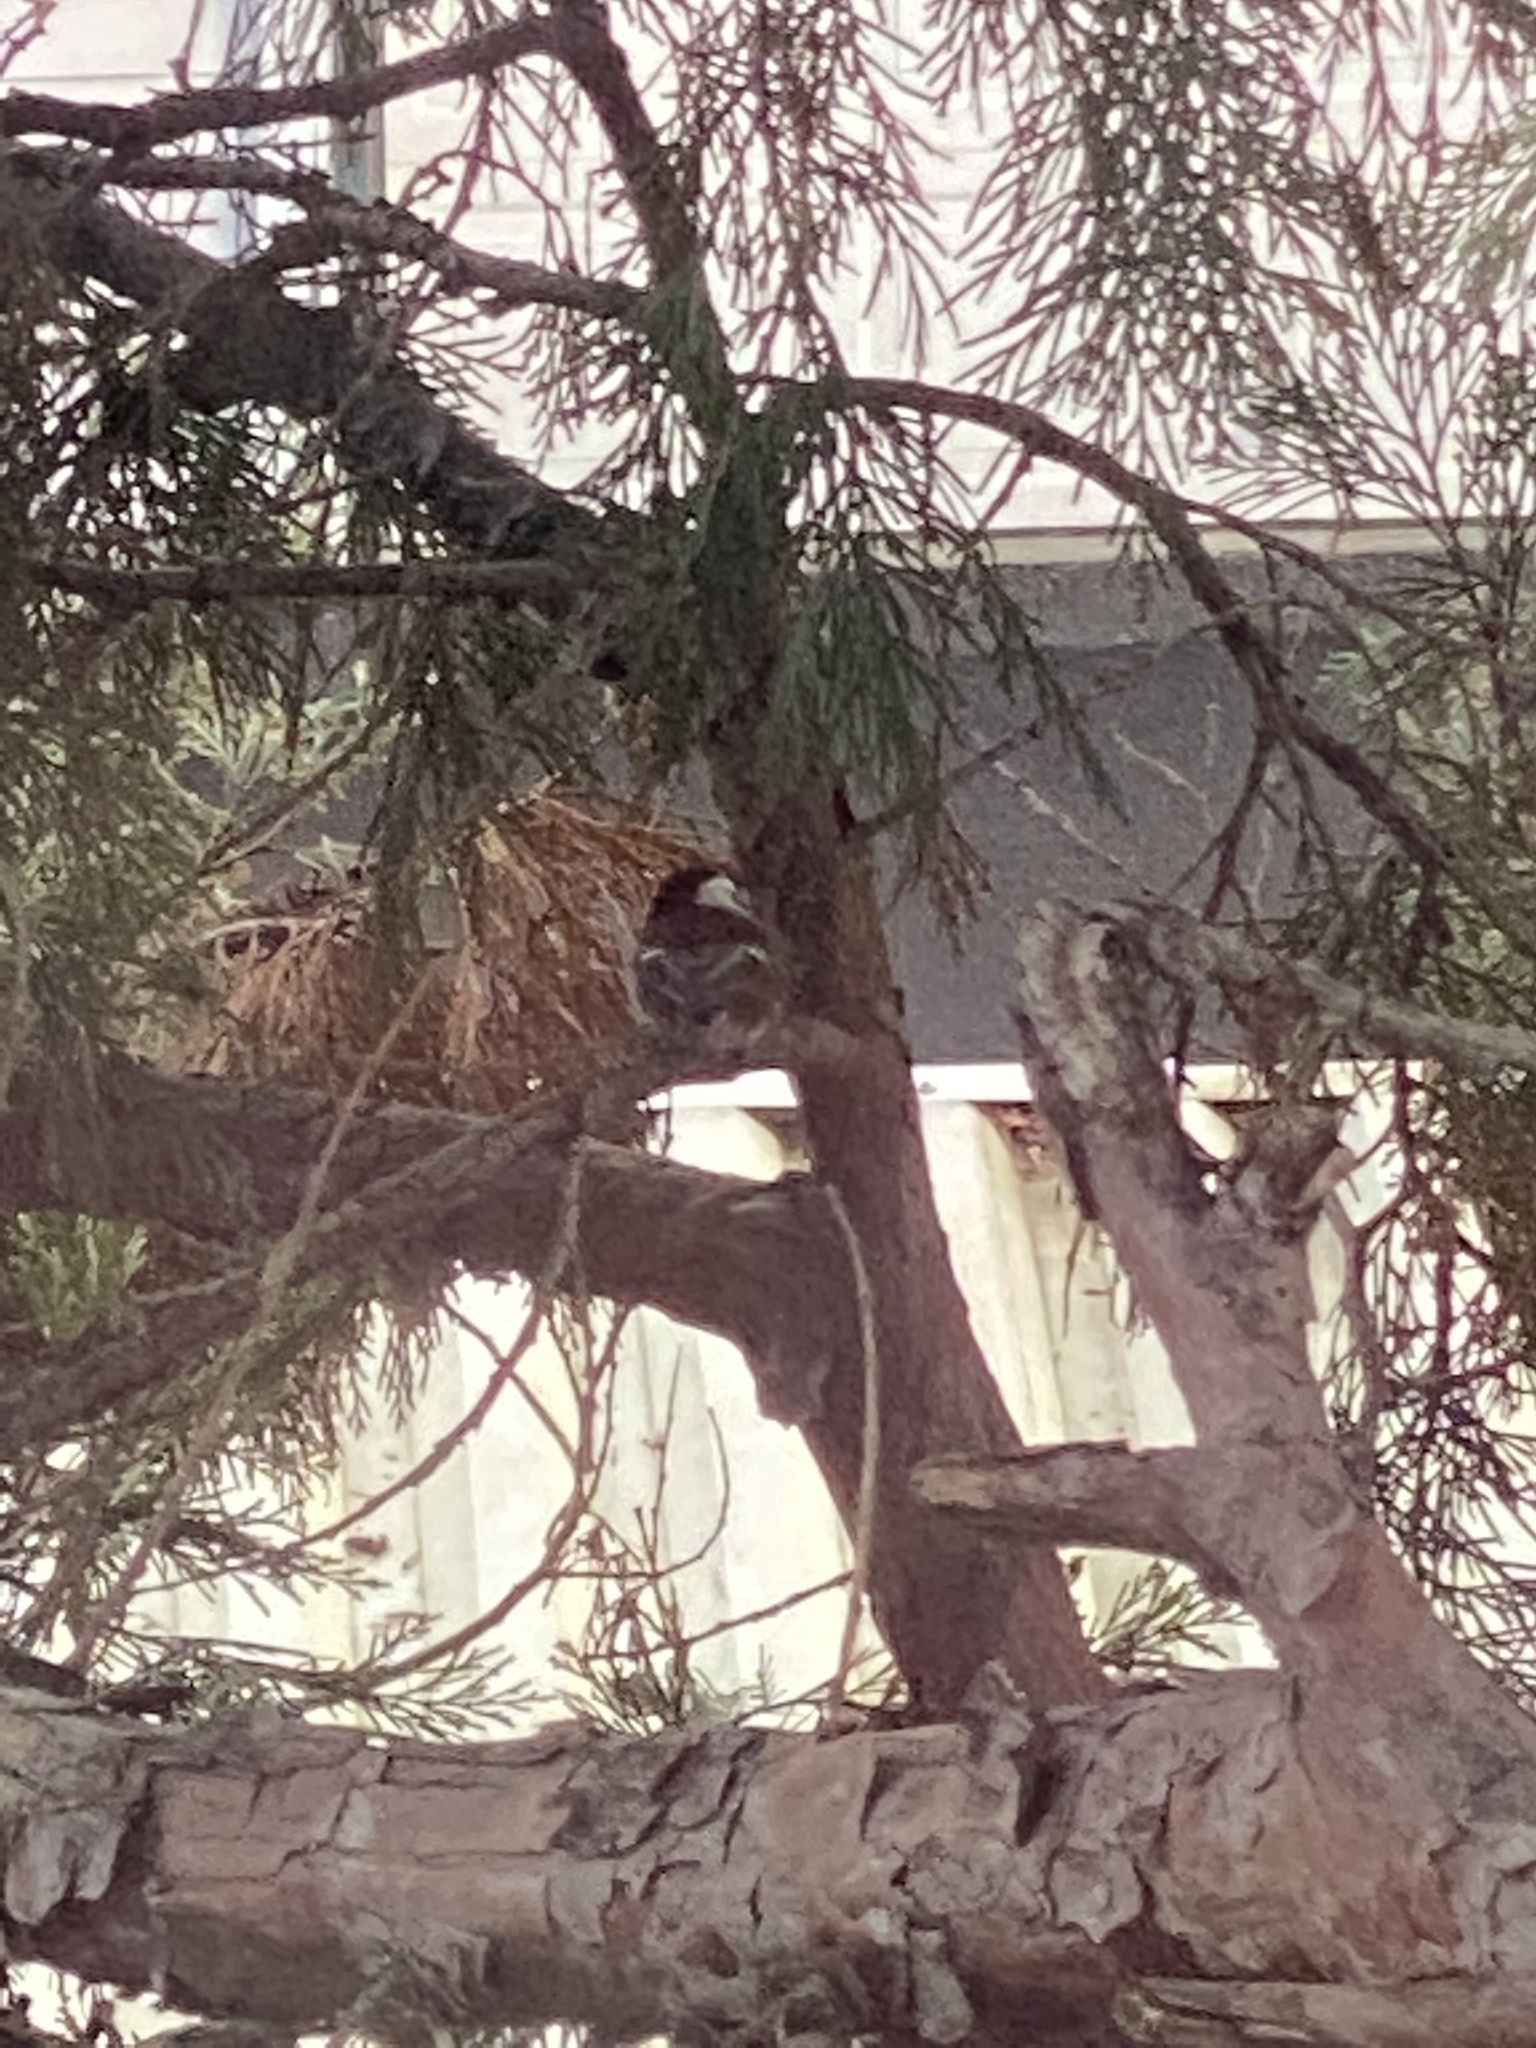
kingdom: Animalia
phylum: Chordata
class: Aves
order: Passeriformes
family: Paridae
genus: Poecile
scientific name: Poecile rufescens
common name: Chestnut-backed chickadee
